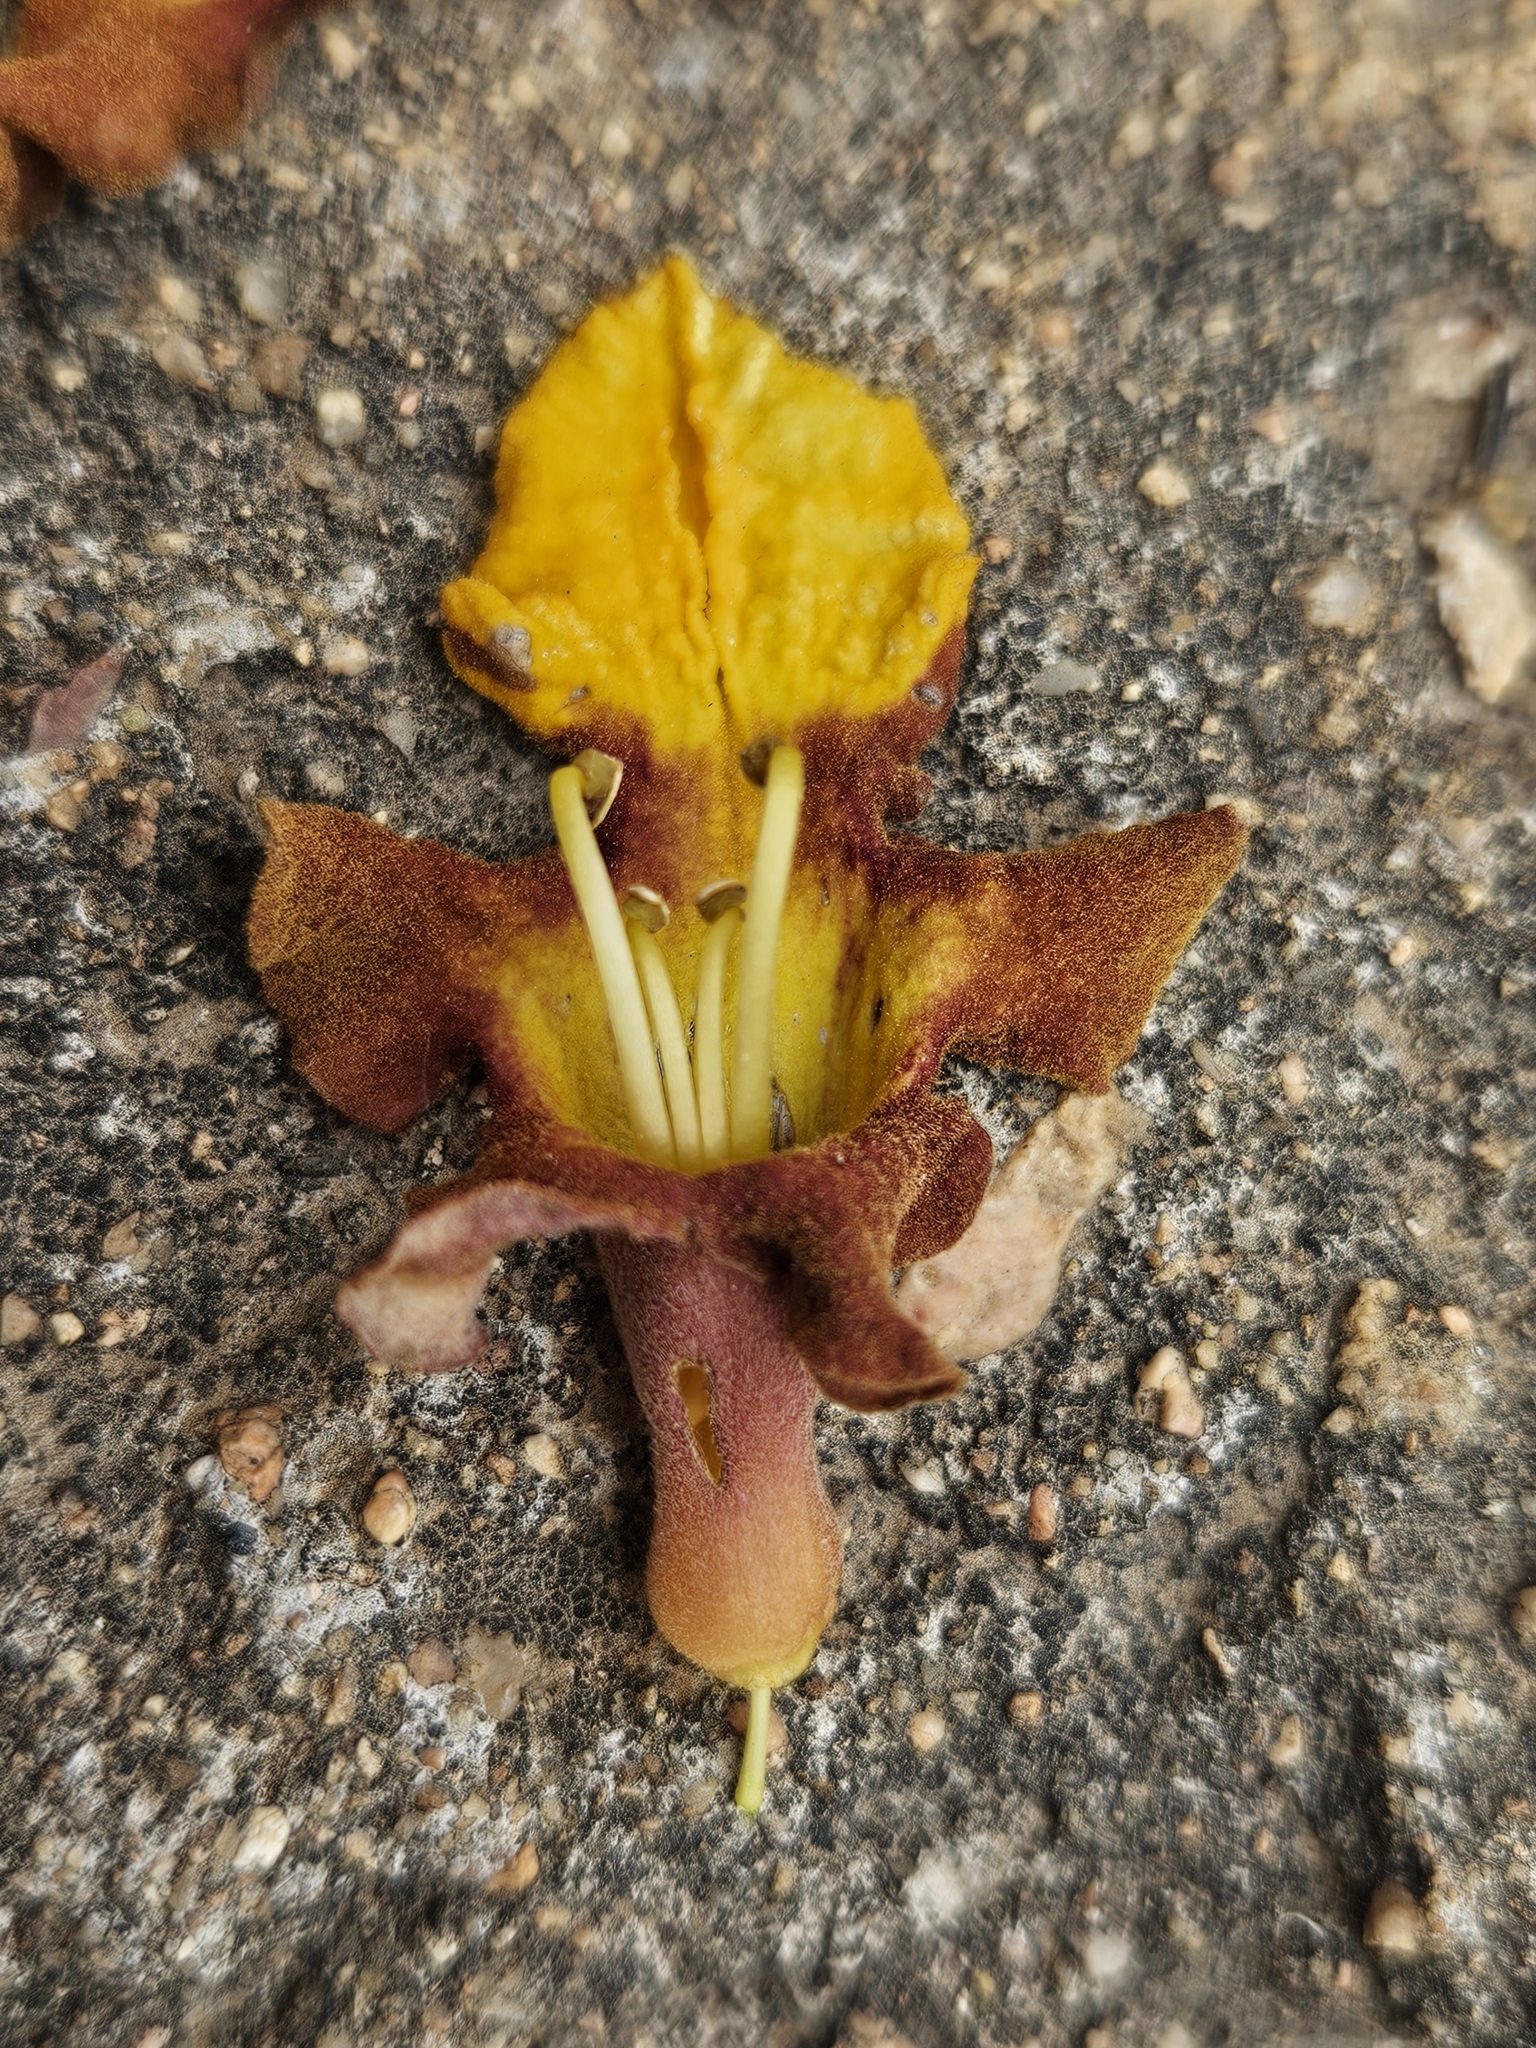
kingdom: Plantae
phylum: Tracheophyta
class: Magnoliopsida
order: Lamiales
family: Lamiaceae
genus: Gmelina
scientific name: Gmelina arborea
